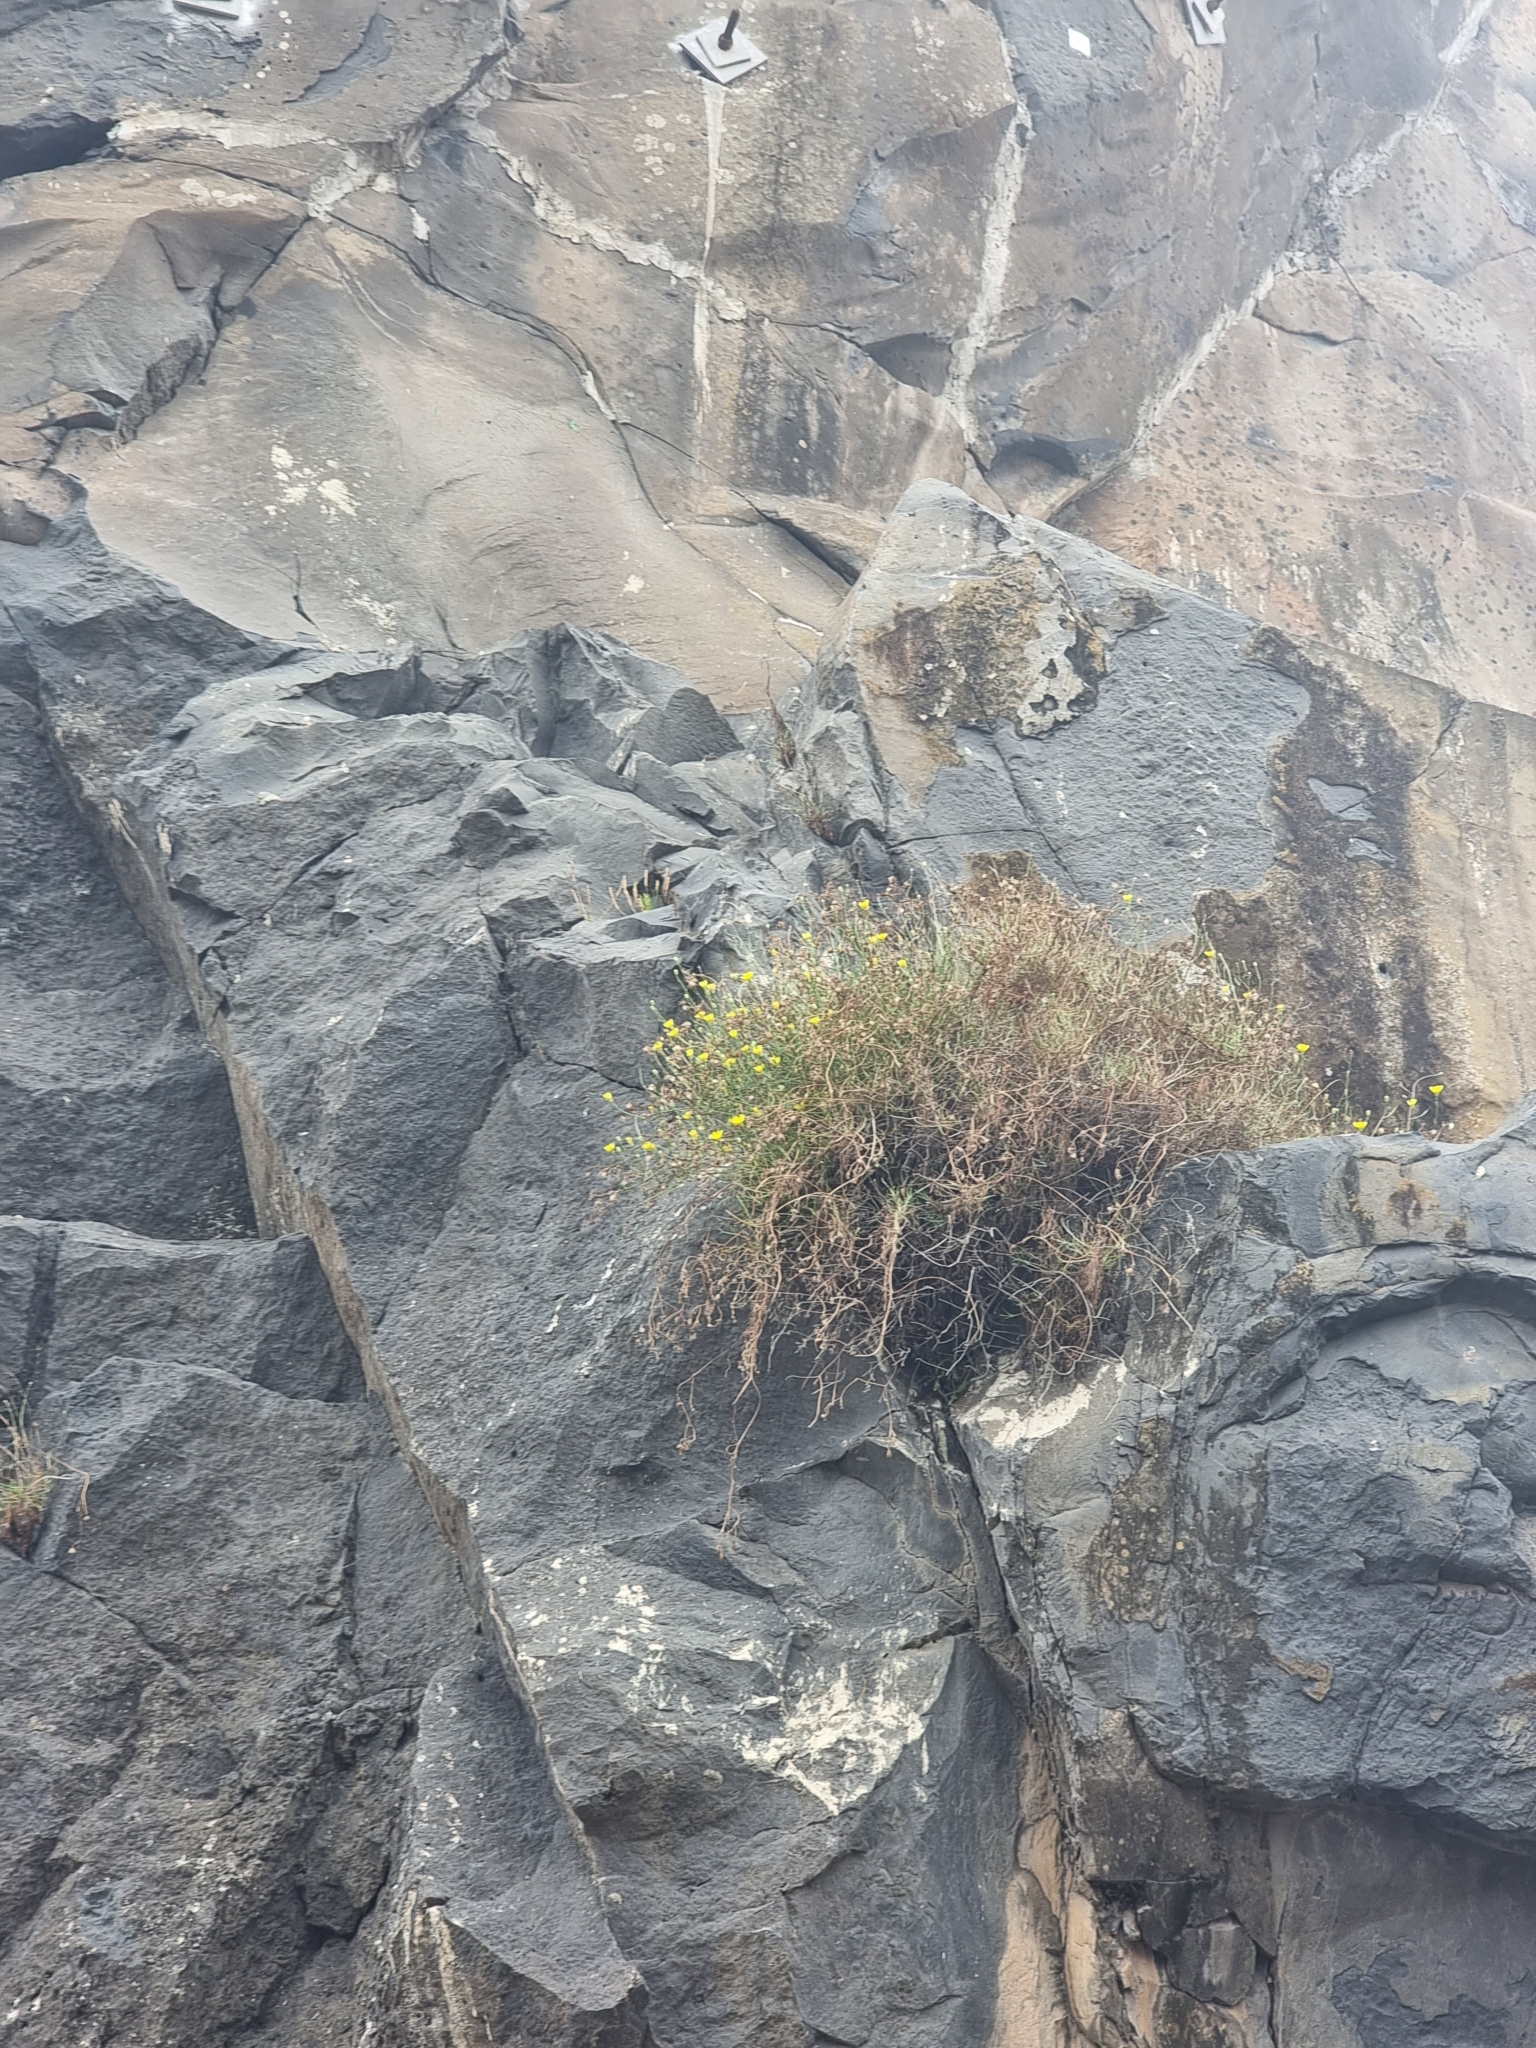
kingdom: Plantae
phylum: Tracheophyta
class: Magnoliopsida
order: Asterales
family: Asteraceae
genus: Tolpis
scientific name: Tolpis succulenta
